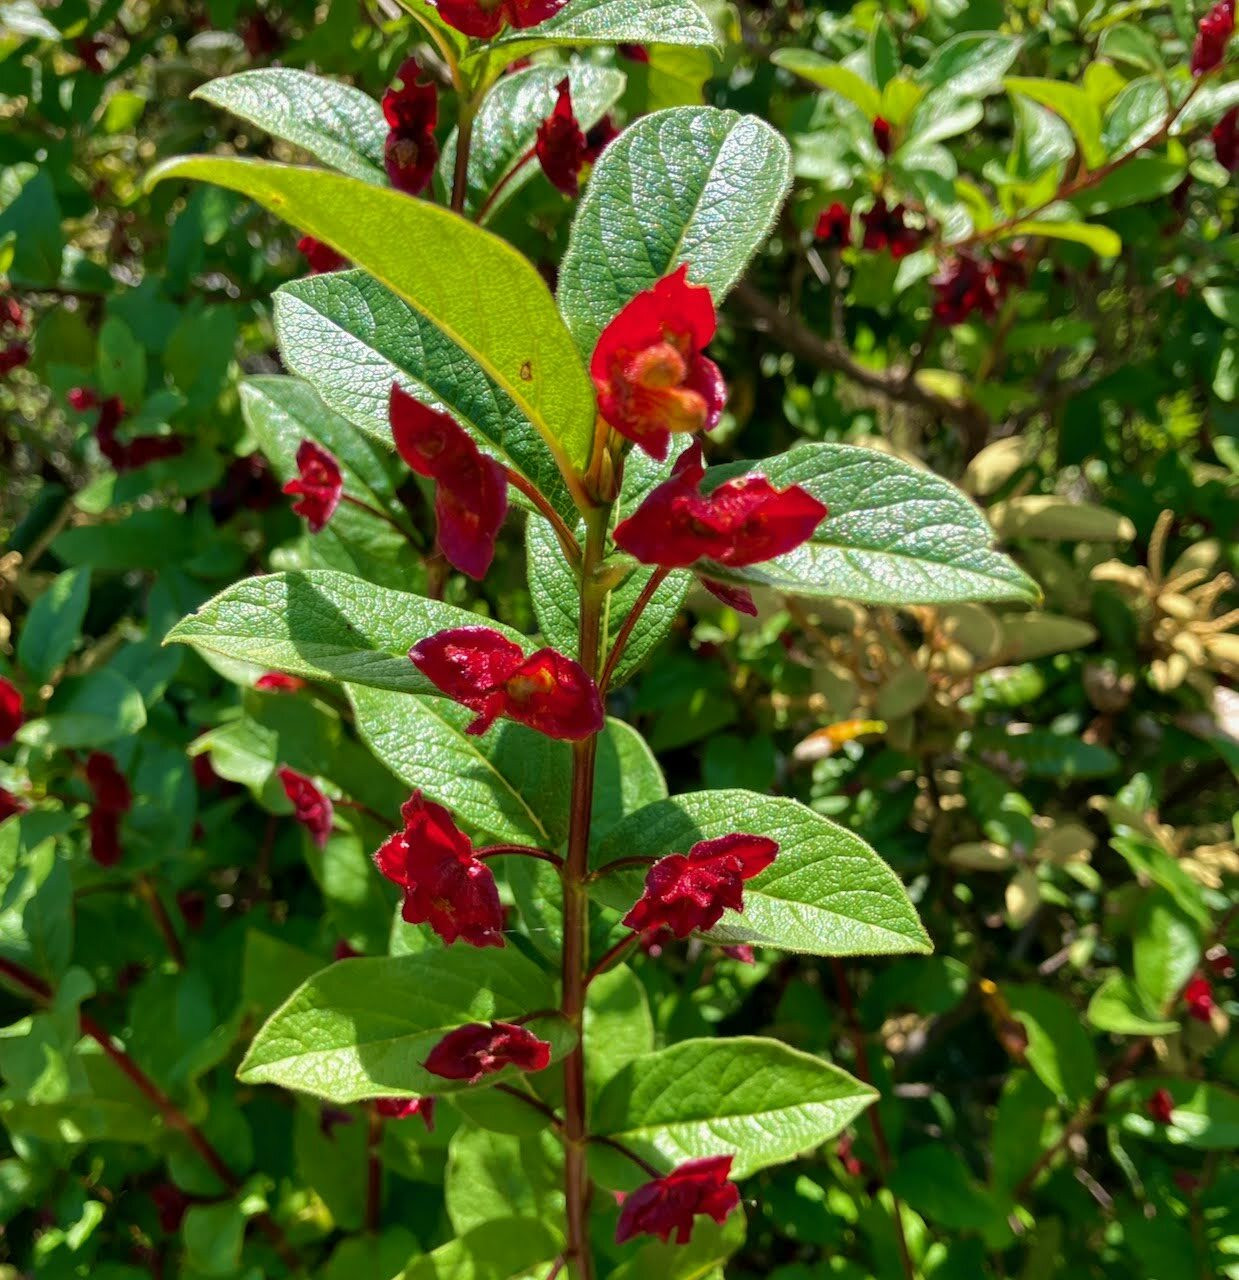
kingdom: Plantae
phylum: Tracheophyta
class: Magnoliopsida
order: Dipsacales
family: Caprifoliaceae
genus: Lonicera
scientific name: Lonicera involucrata
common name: Californian honeysuckle
